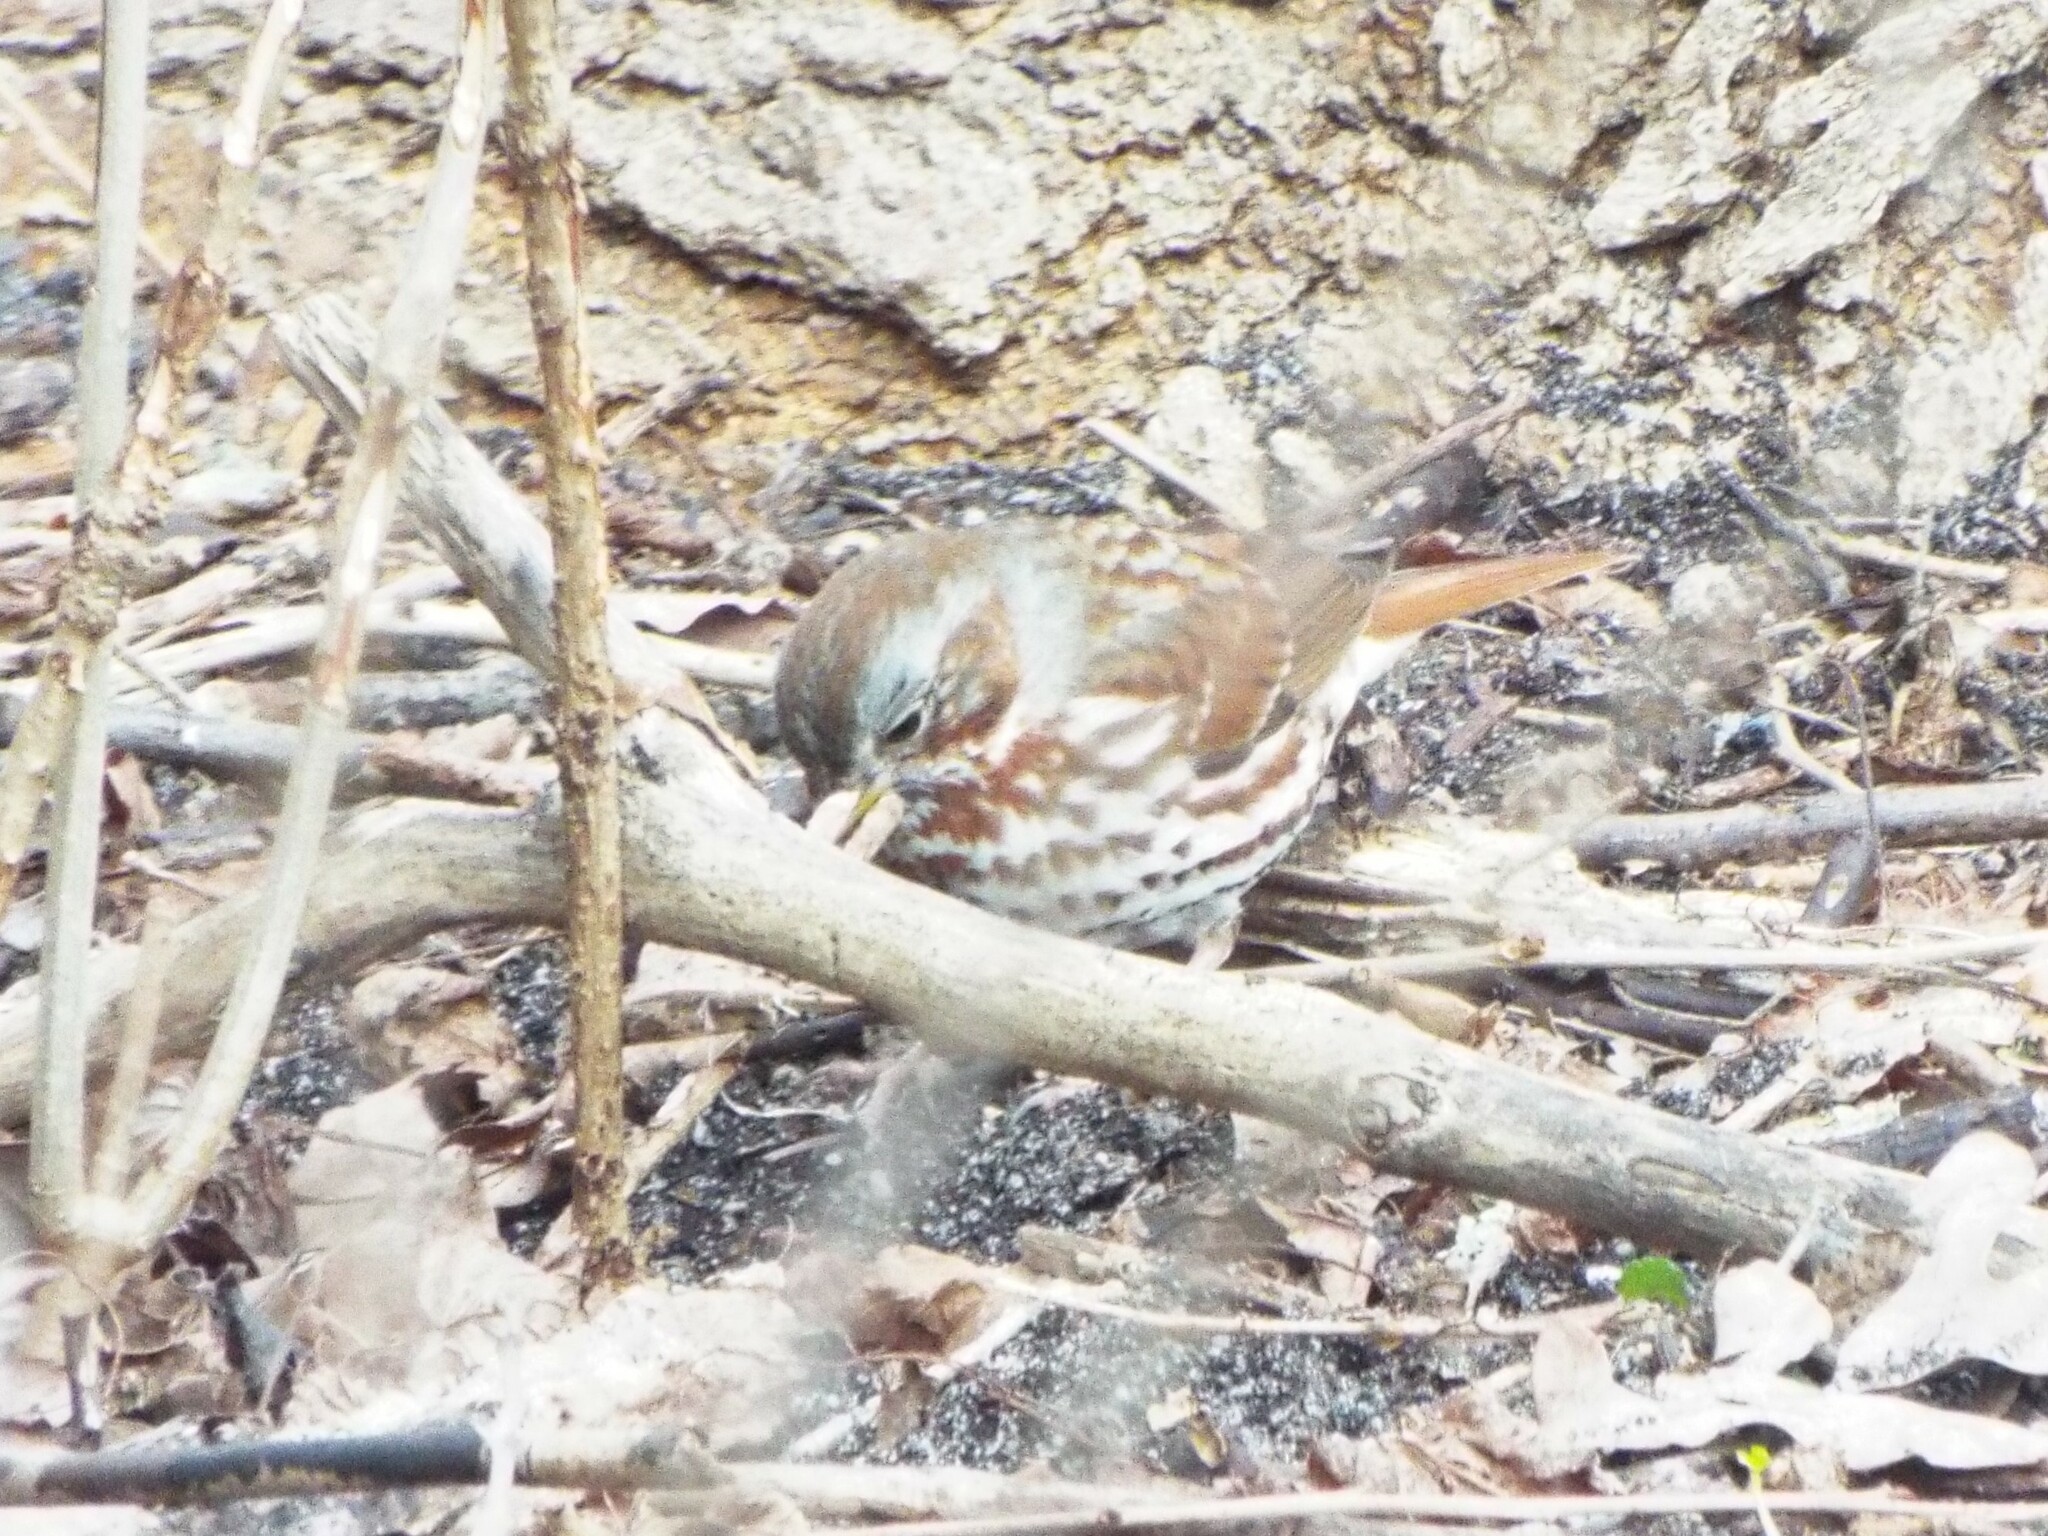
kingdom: Animalia
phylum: Chordata
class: Aves
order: Passeriformes
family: Passerellidae
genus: Passerella
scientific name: Passerella iliaca
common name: Fox sparrow
